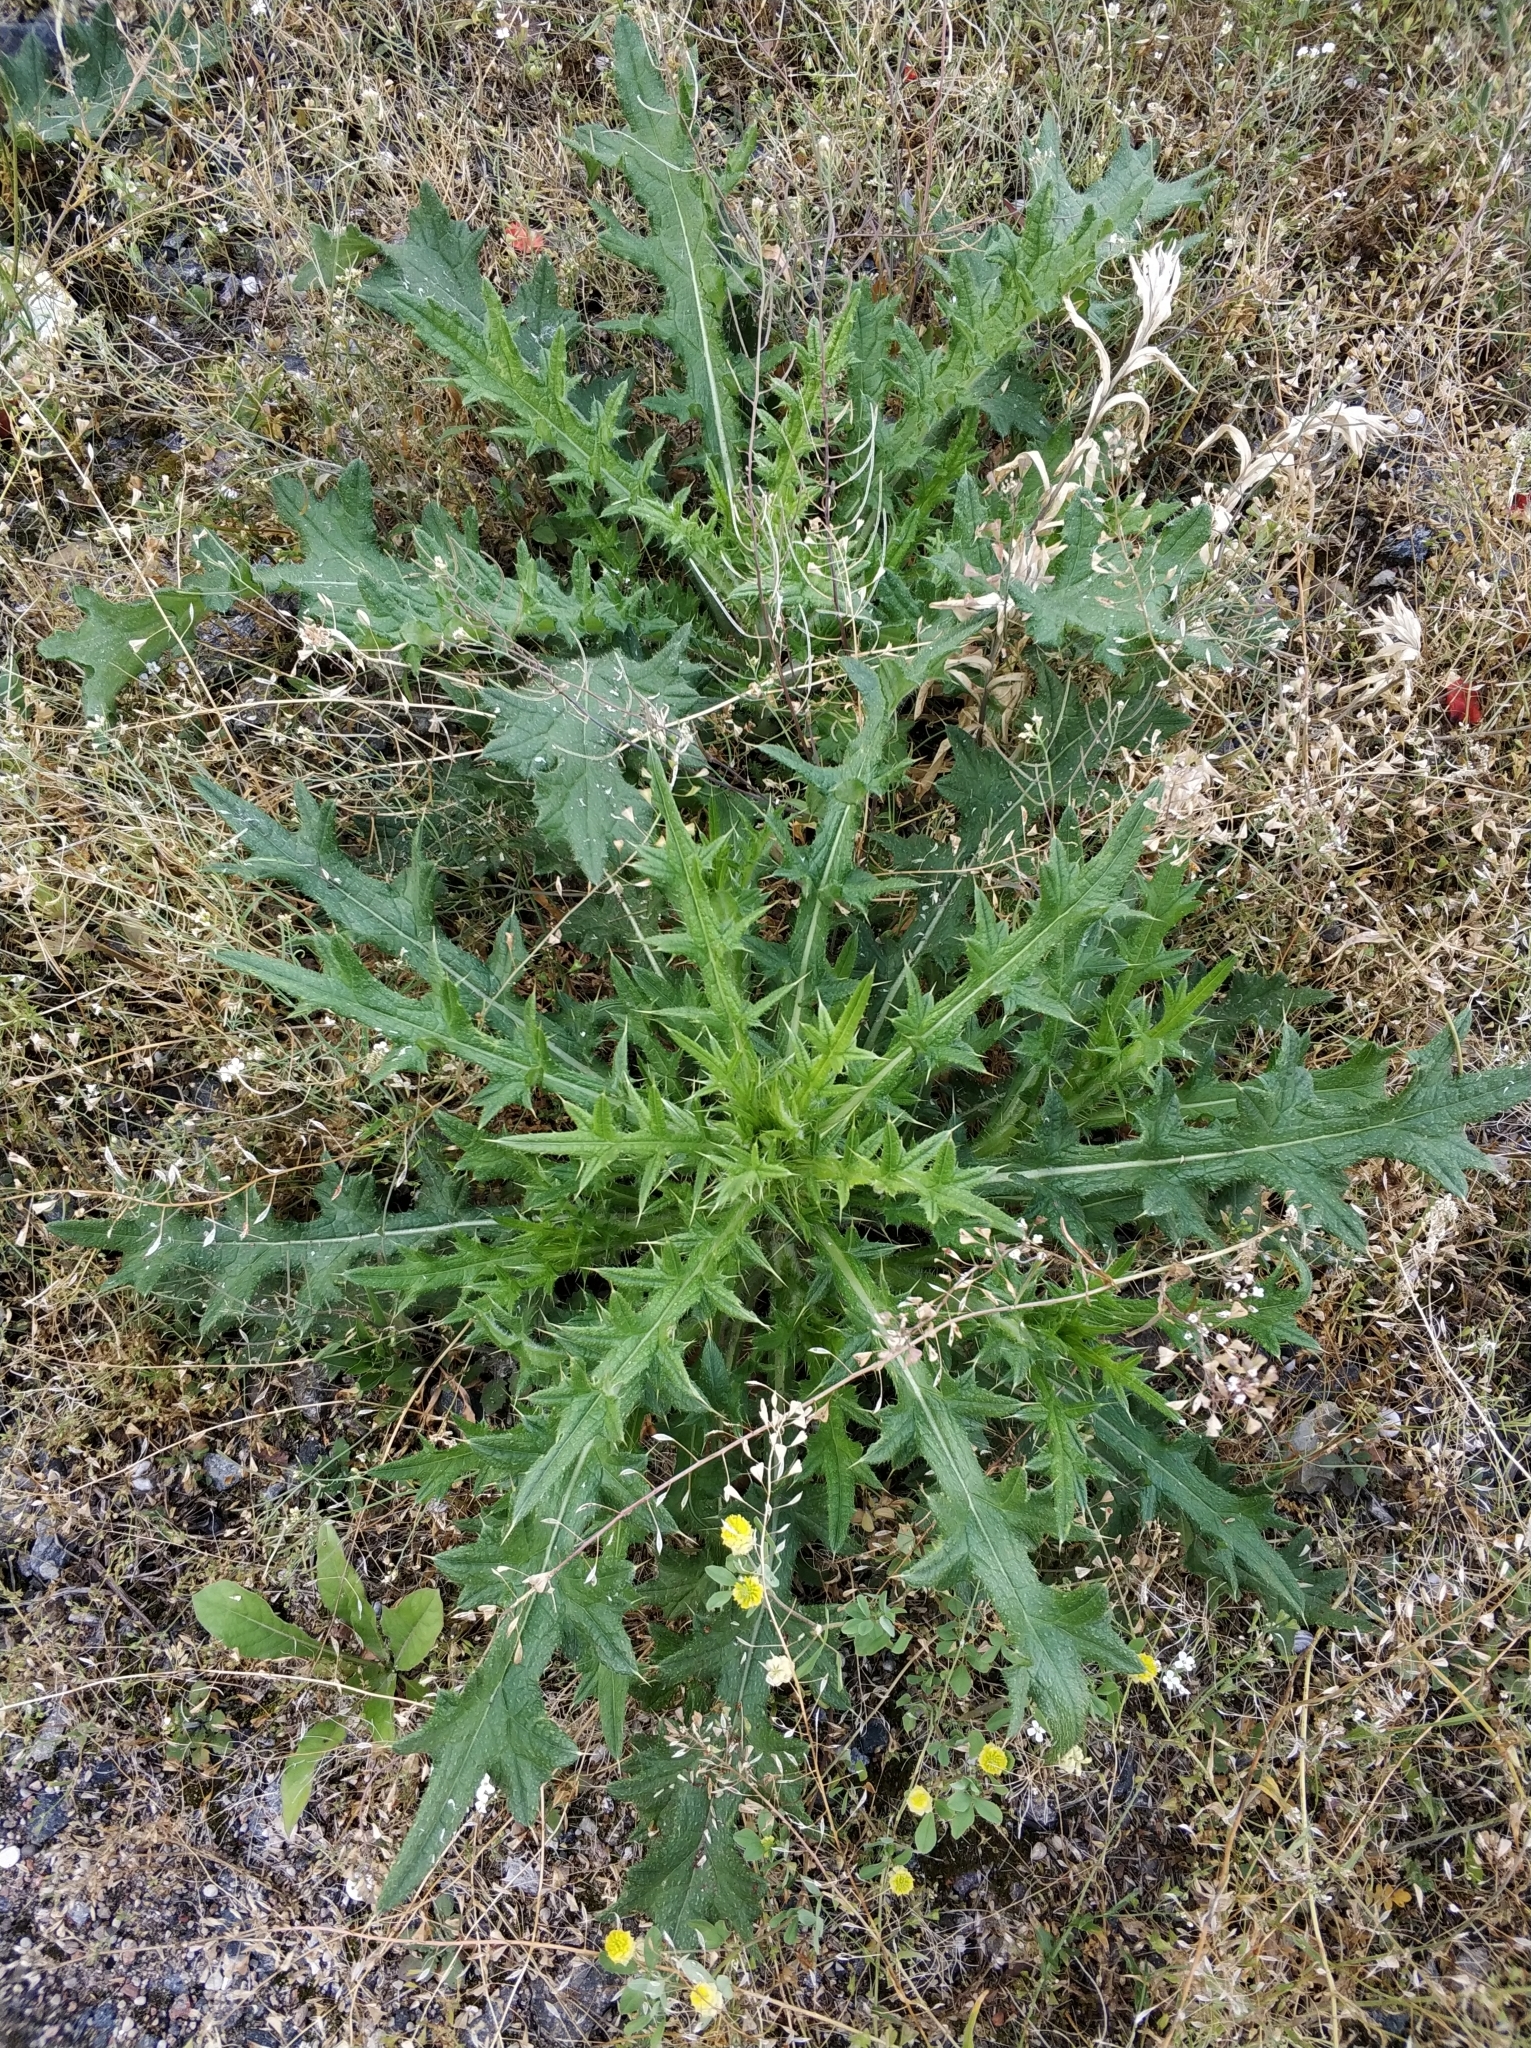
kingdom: Plantae
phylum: Tracheophyta
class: Magnoliopsida
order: Asterales
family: Asteraceae
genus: Cirsium
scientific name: Cirsium vulgare
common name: Bull thistle
